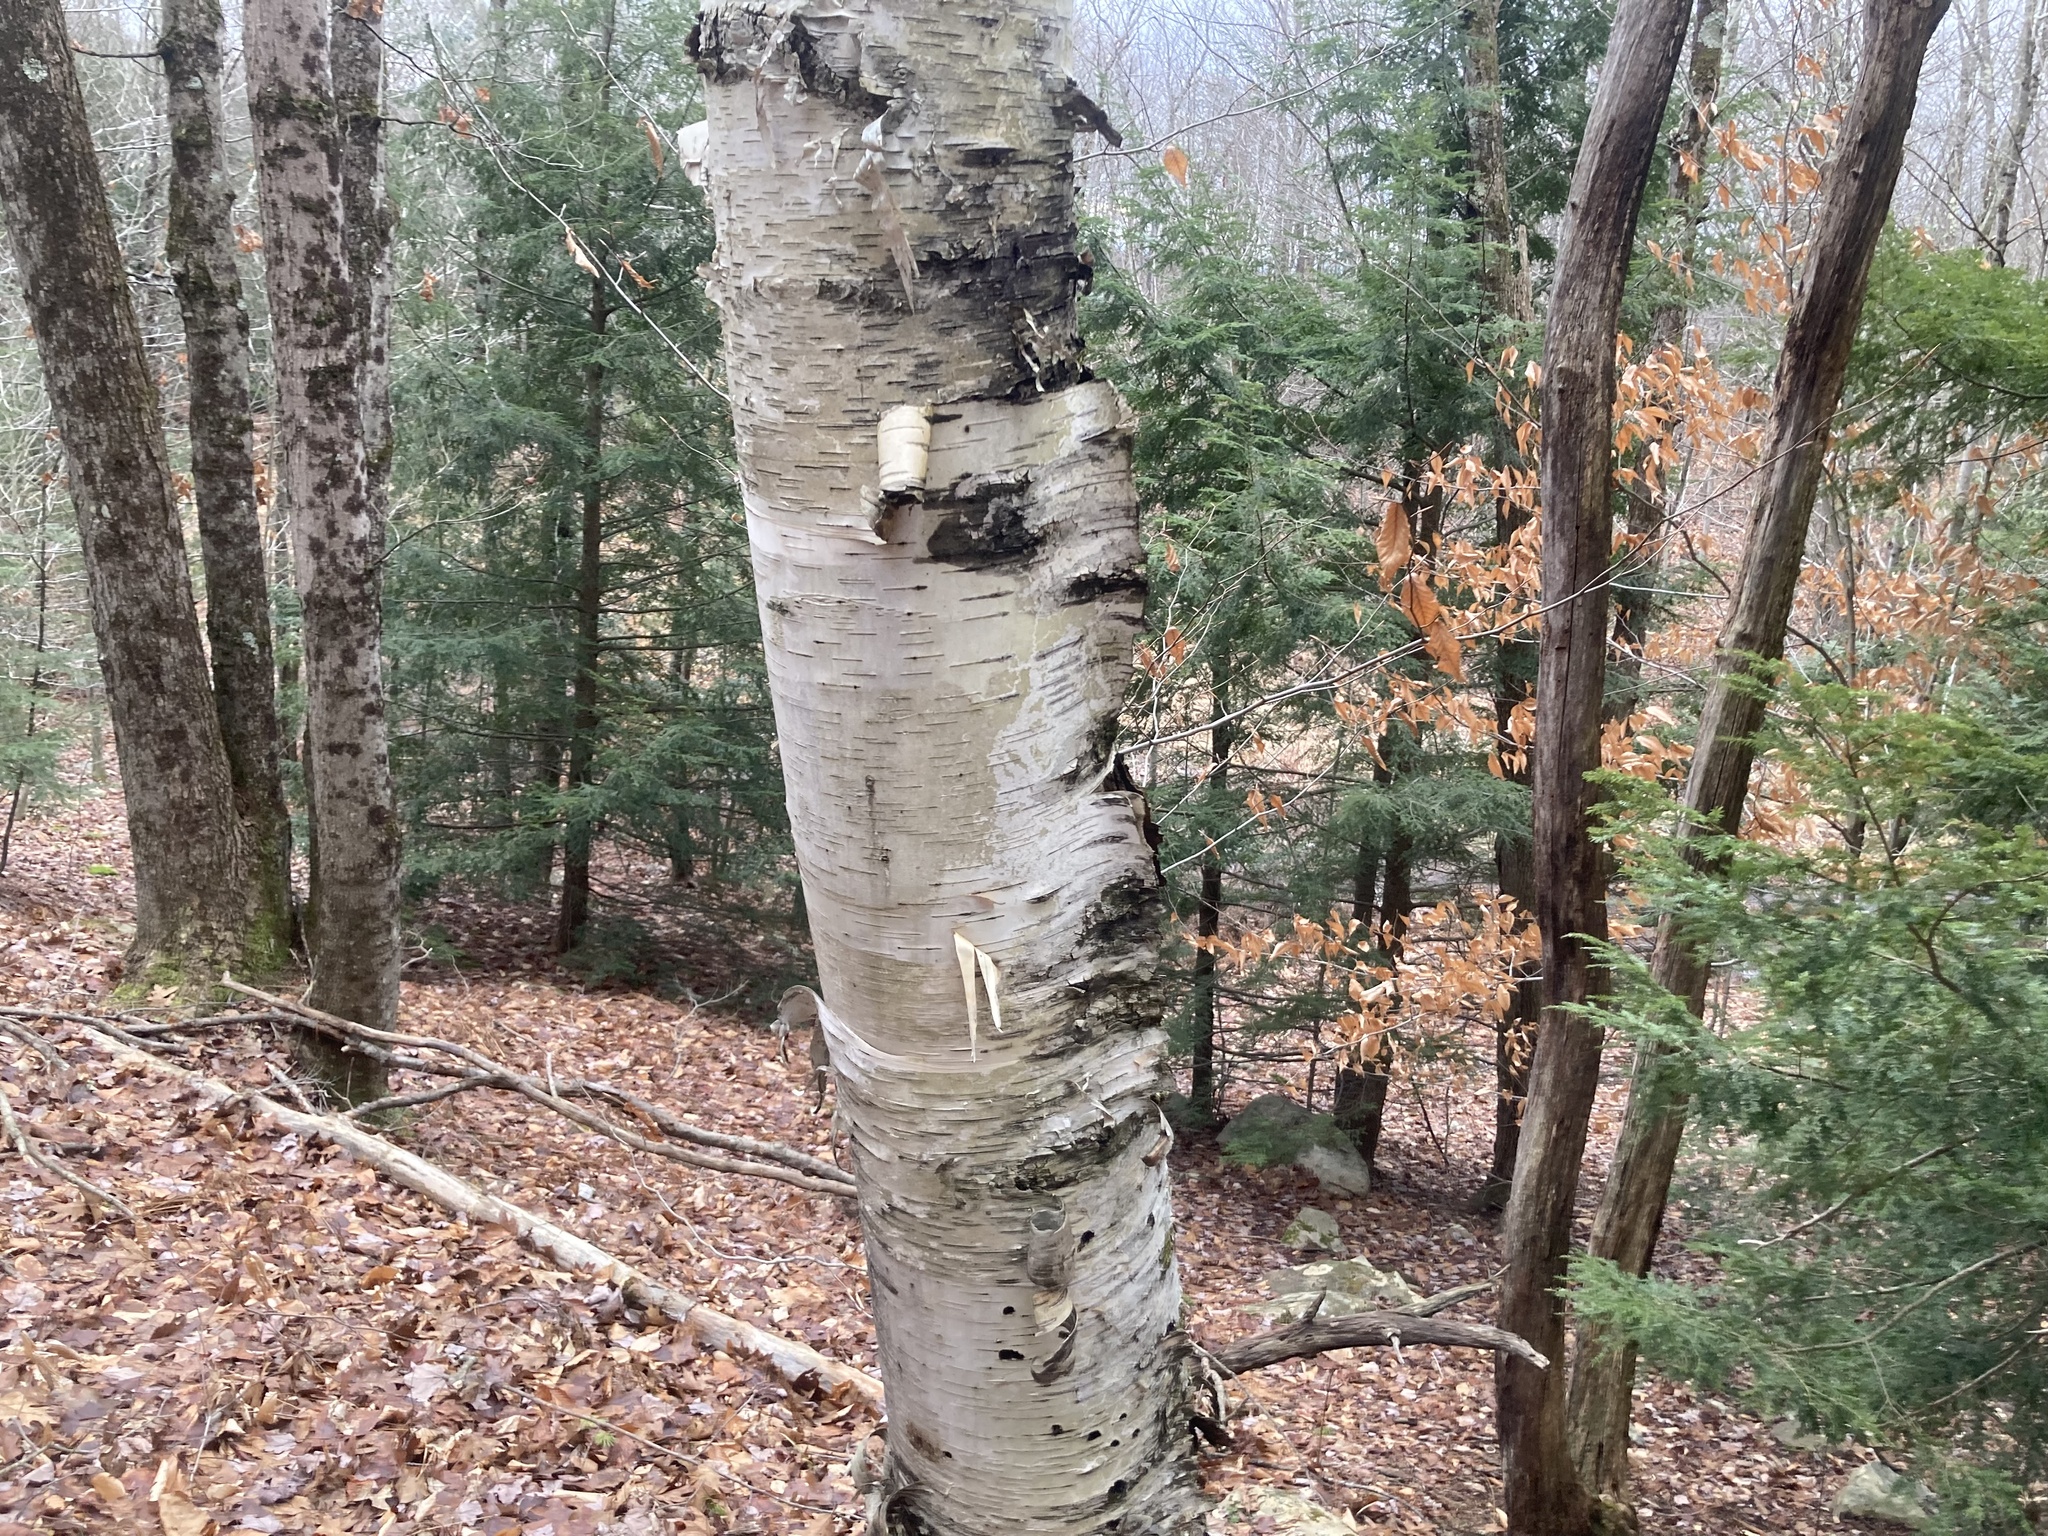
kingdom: Plantae
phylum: Tracheophyta
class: Magnoliopsida
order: Fagales
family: Betulaceae
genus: Betula
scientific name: Betula papyrifera
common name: Paper birch
